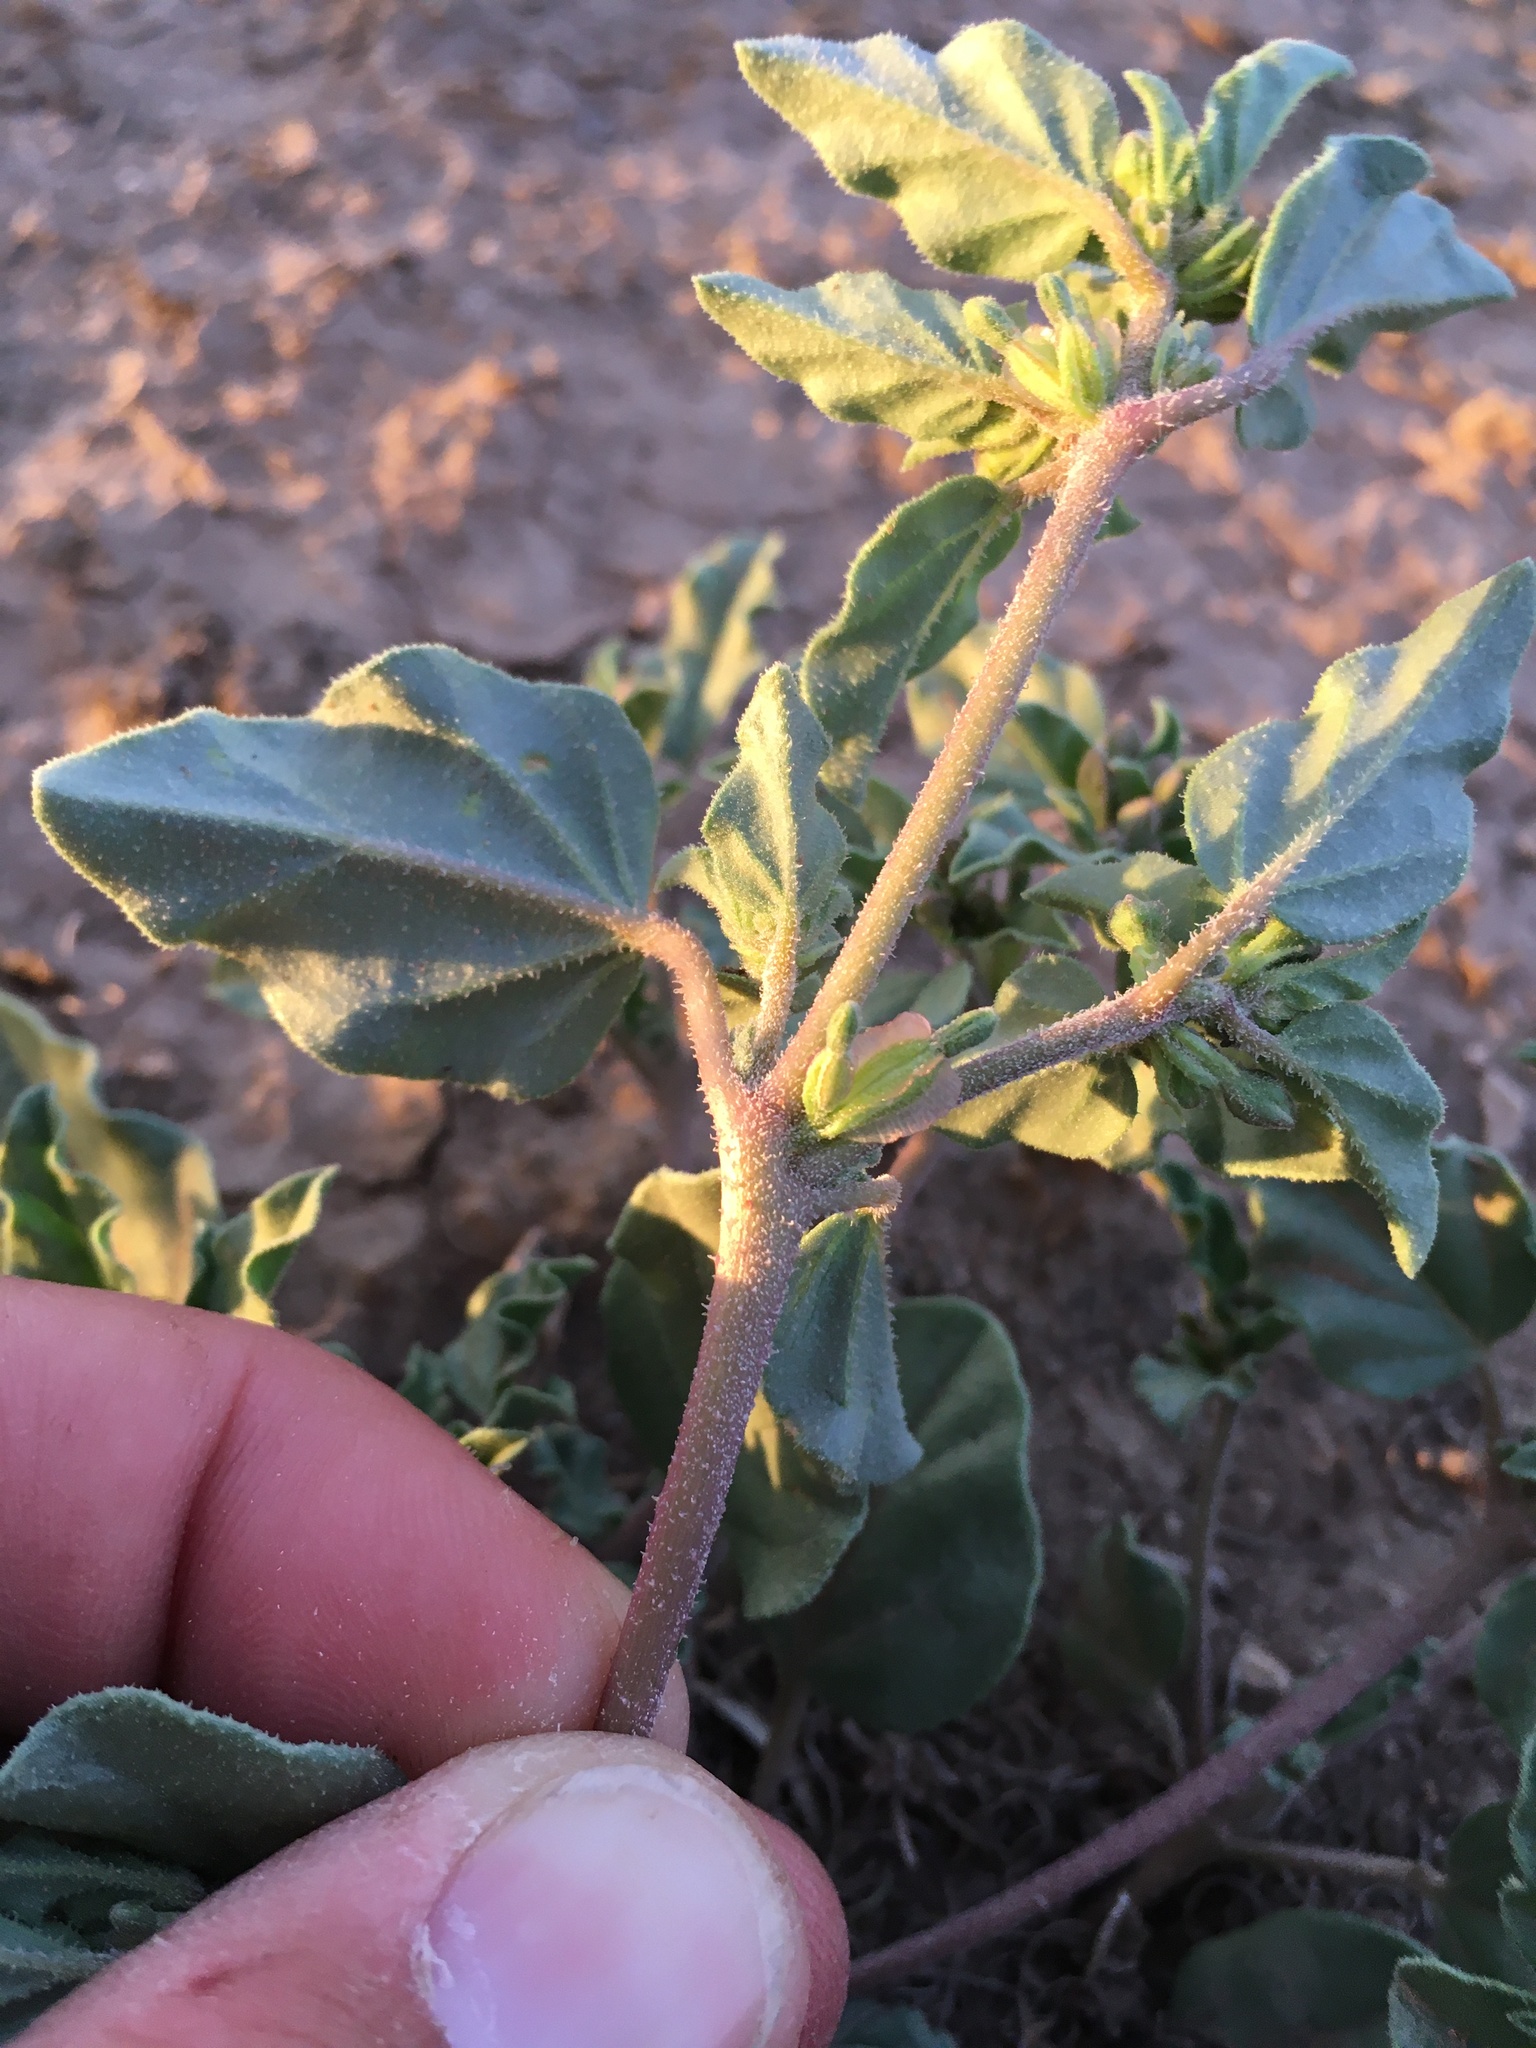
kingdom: Plantae
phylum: Tracheophyta
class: Magnoliopsida
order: Caryophyllales
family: Nyctaginaceae
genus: Acleisanthes
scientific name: Acleisanthes diffusa
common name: Spreading moonpod
